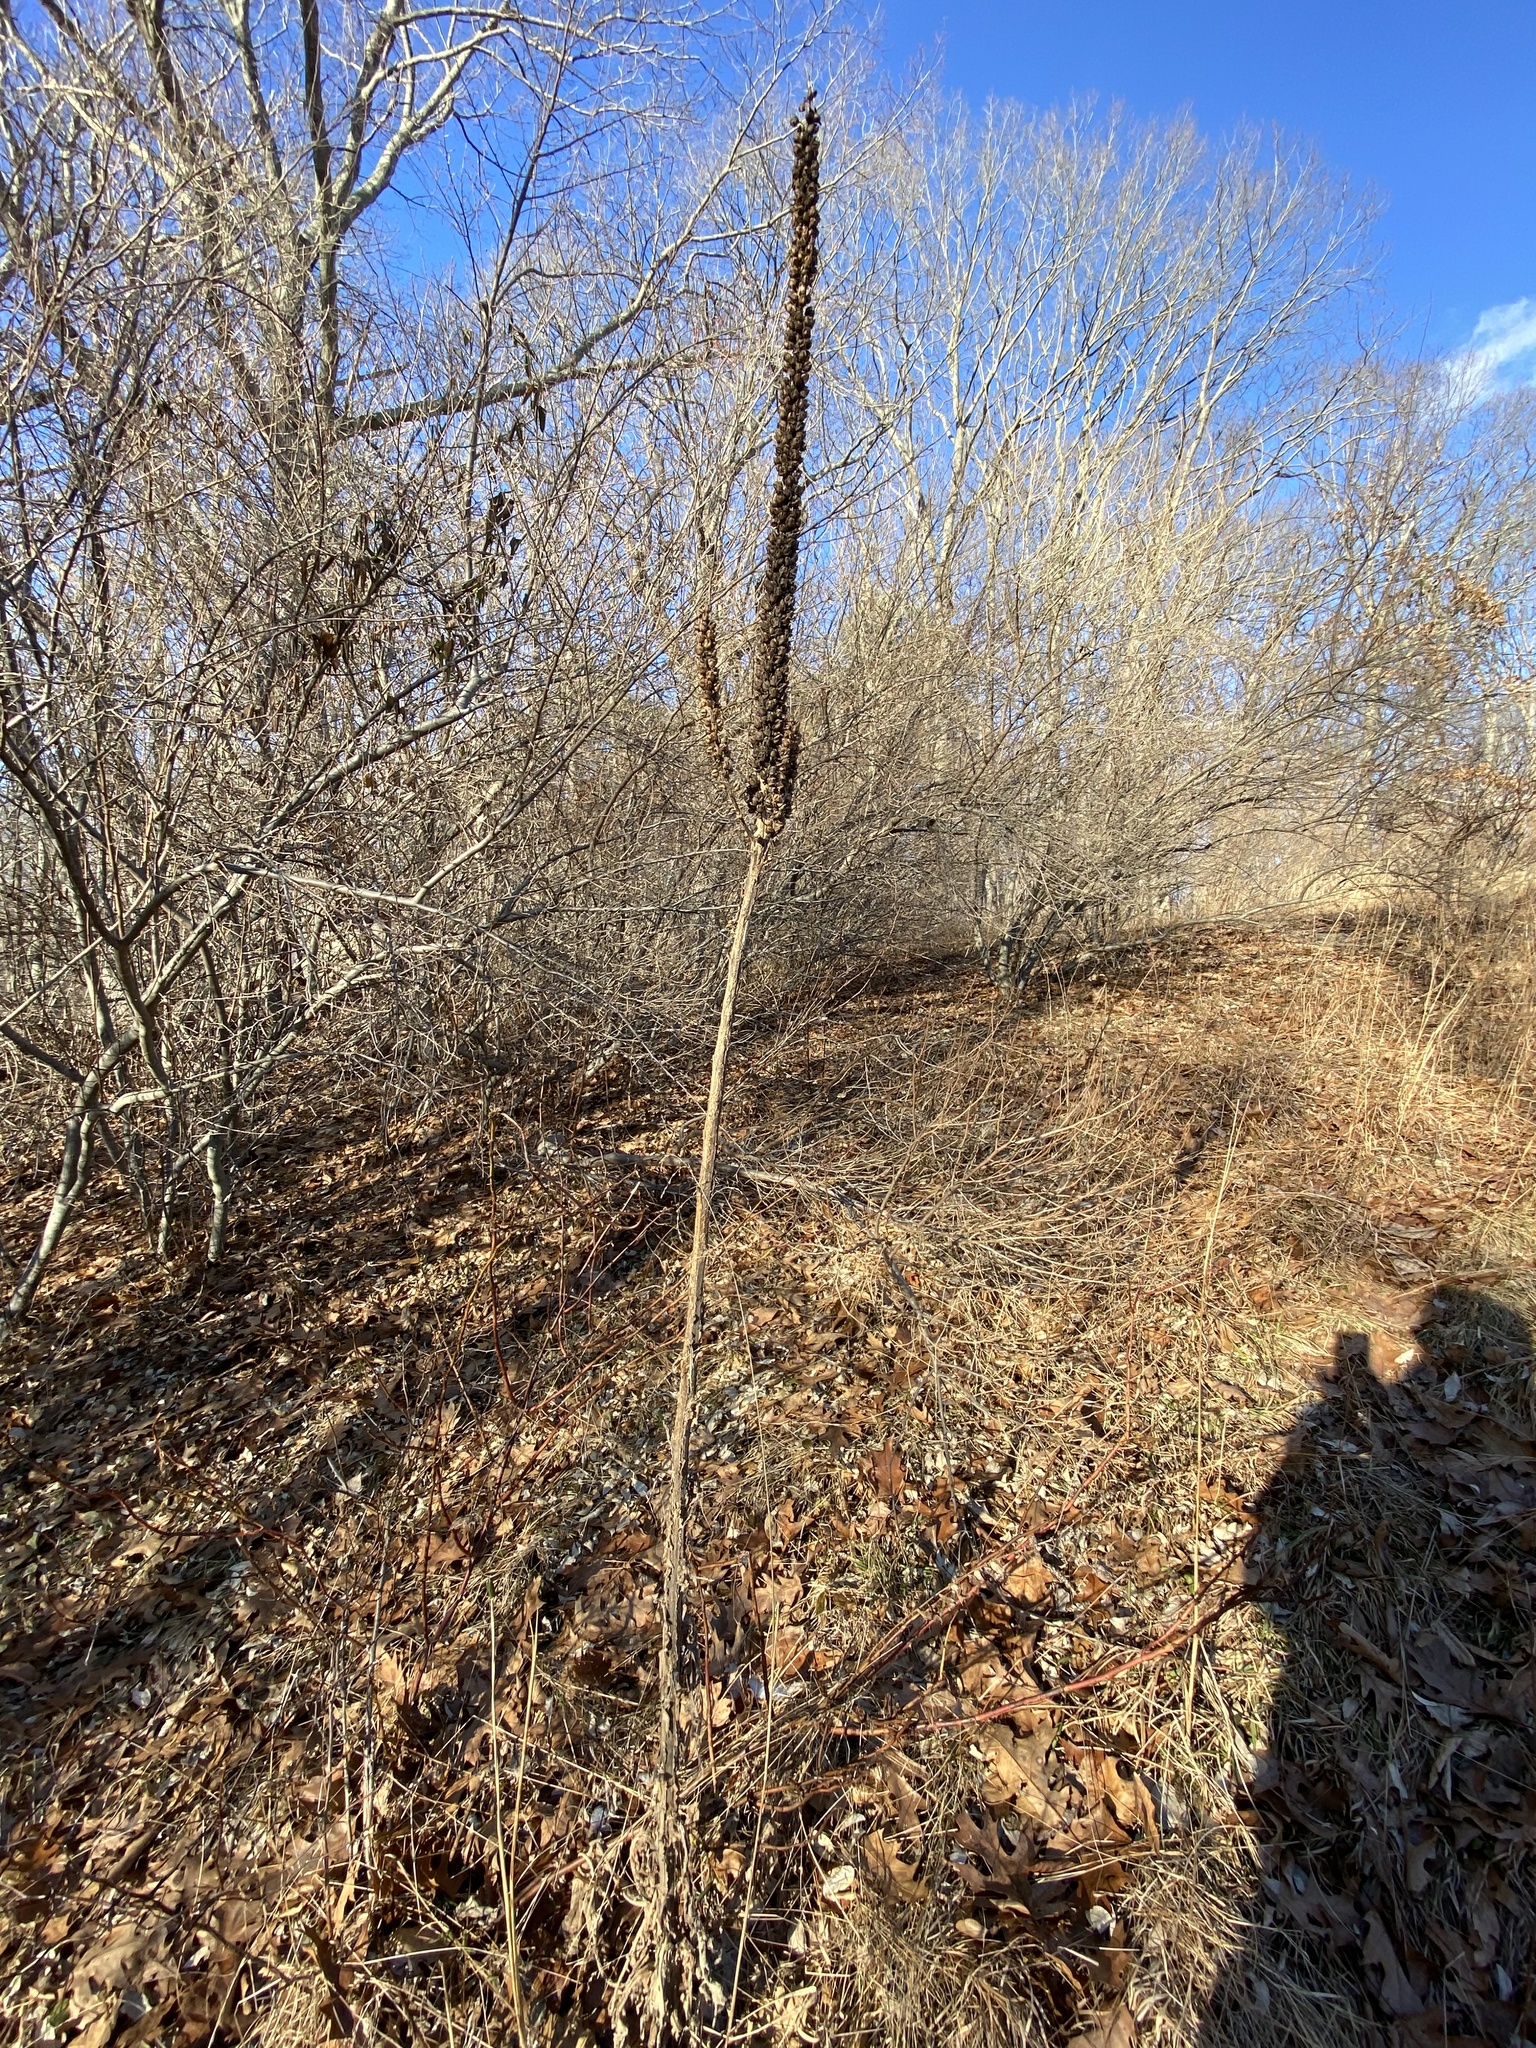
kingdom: Plantae
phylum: Tracheophyta
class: Magnoliopsida
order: Lamiales
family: Scrophulariaceae
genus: Verbascum
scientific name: Verbascum thapsus
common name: Common mullein
